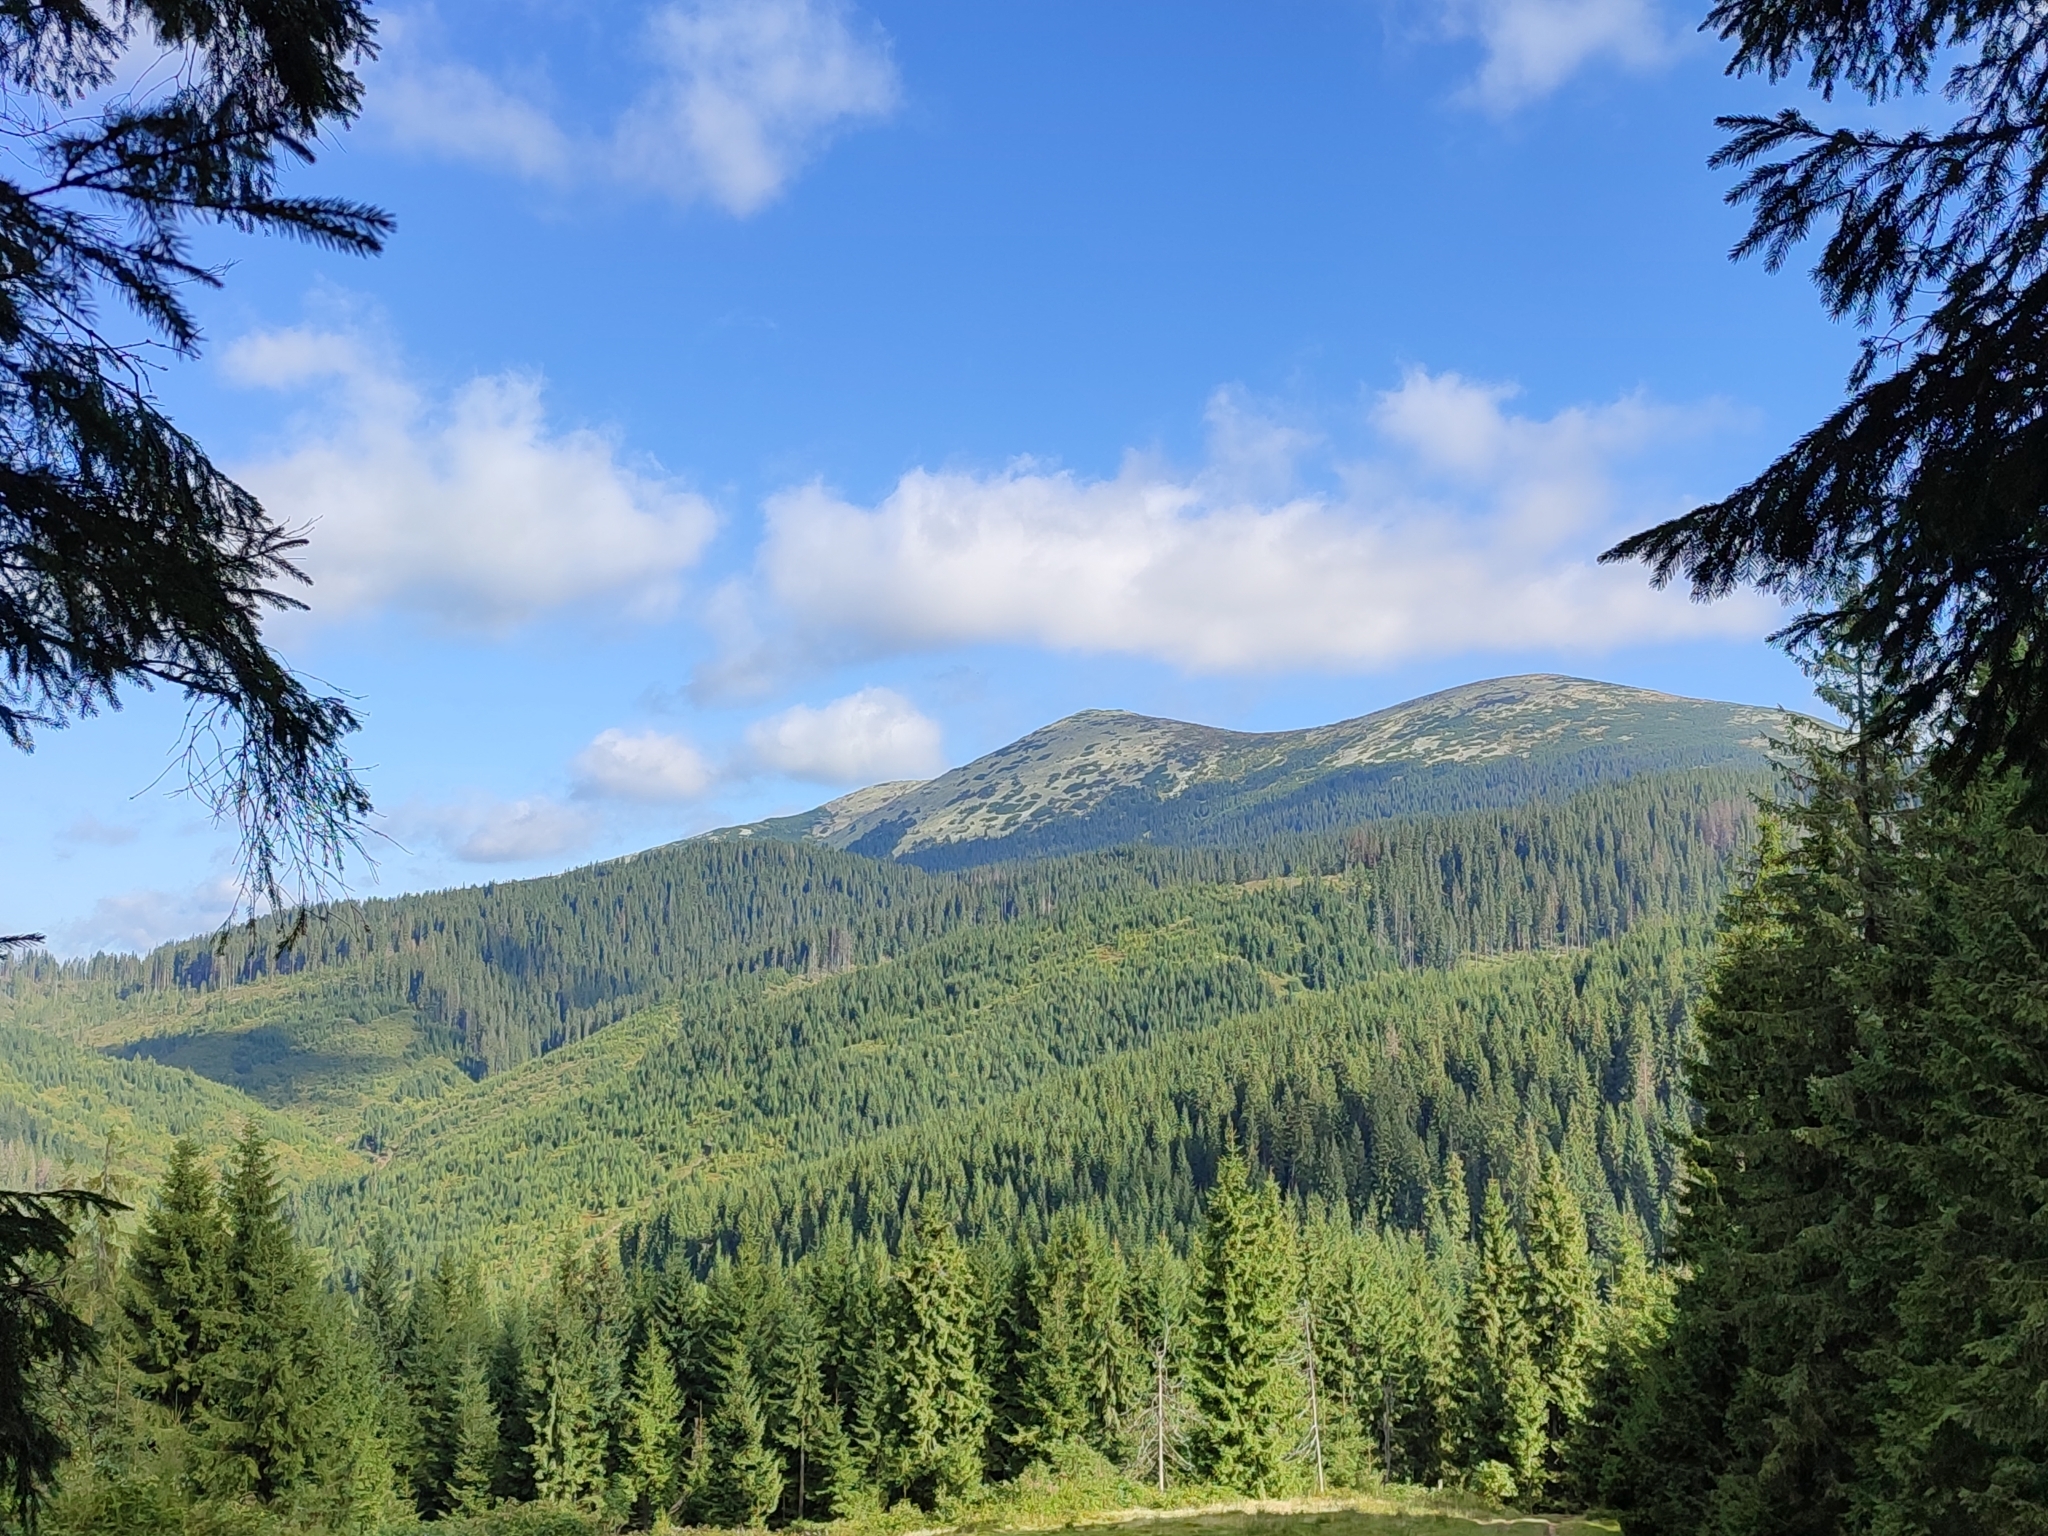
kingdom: Plantae
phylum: Tracheophyta
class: Pinopsida
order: Pinales
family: Pinaceae
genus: Picea
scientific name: Picea abies
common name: Norway spruce
